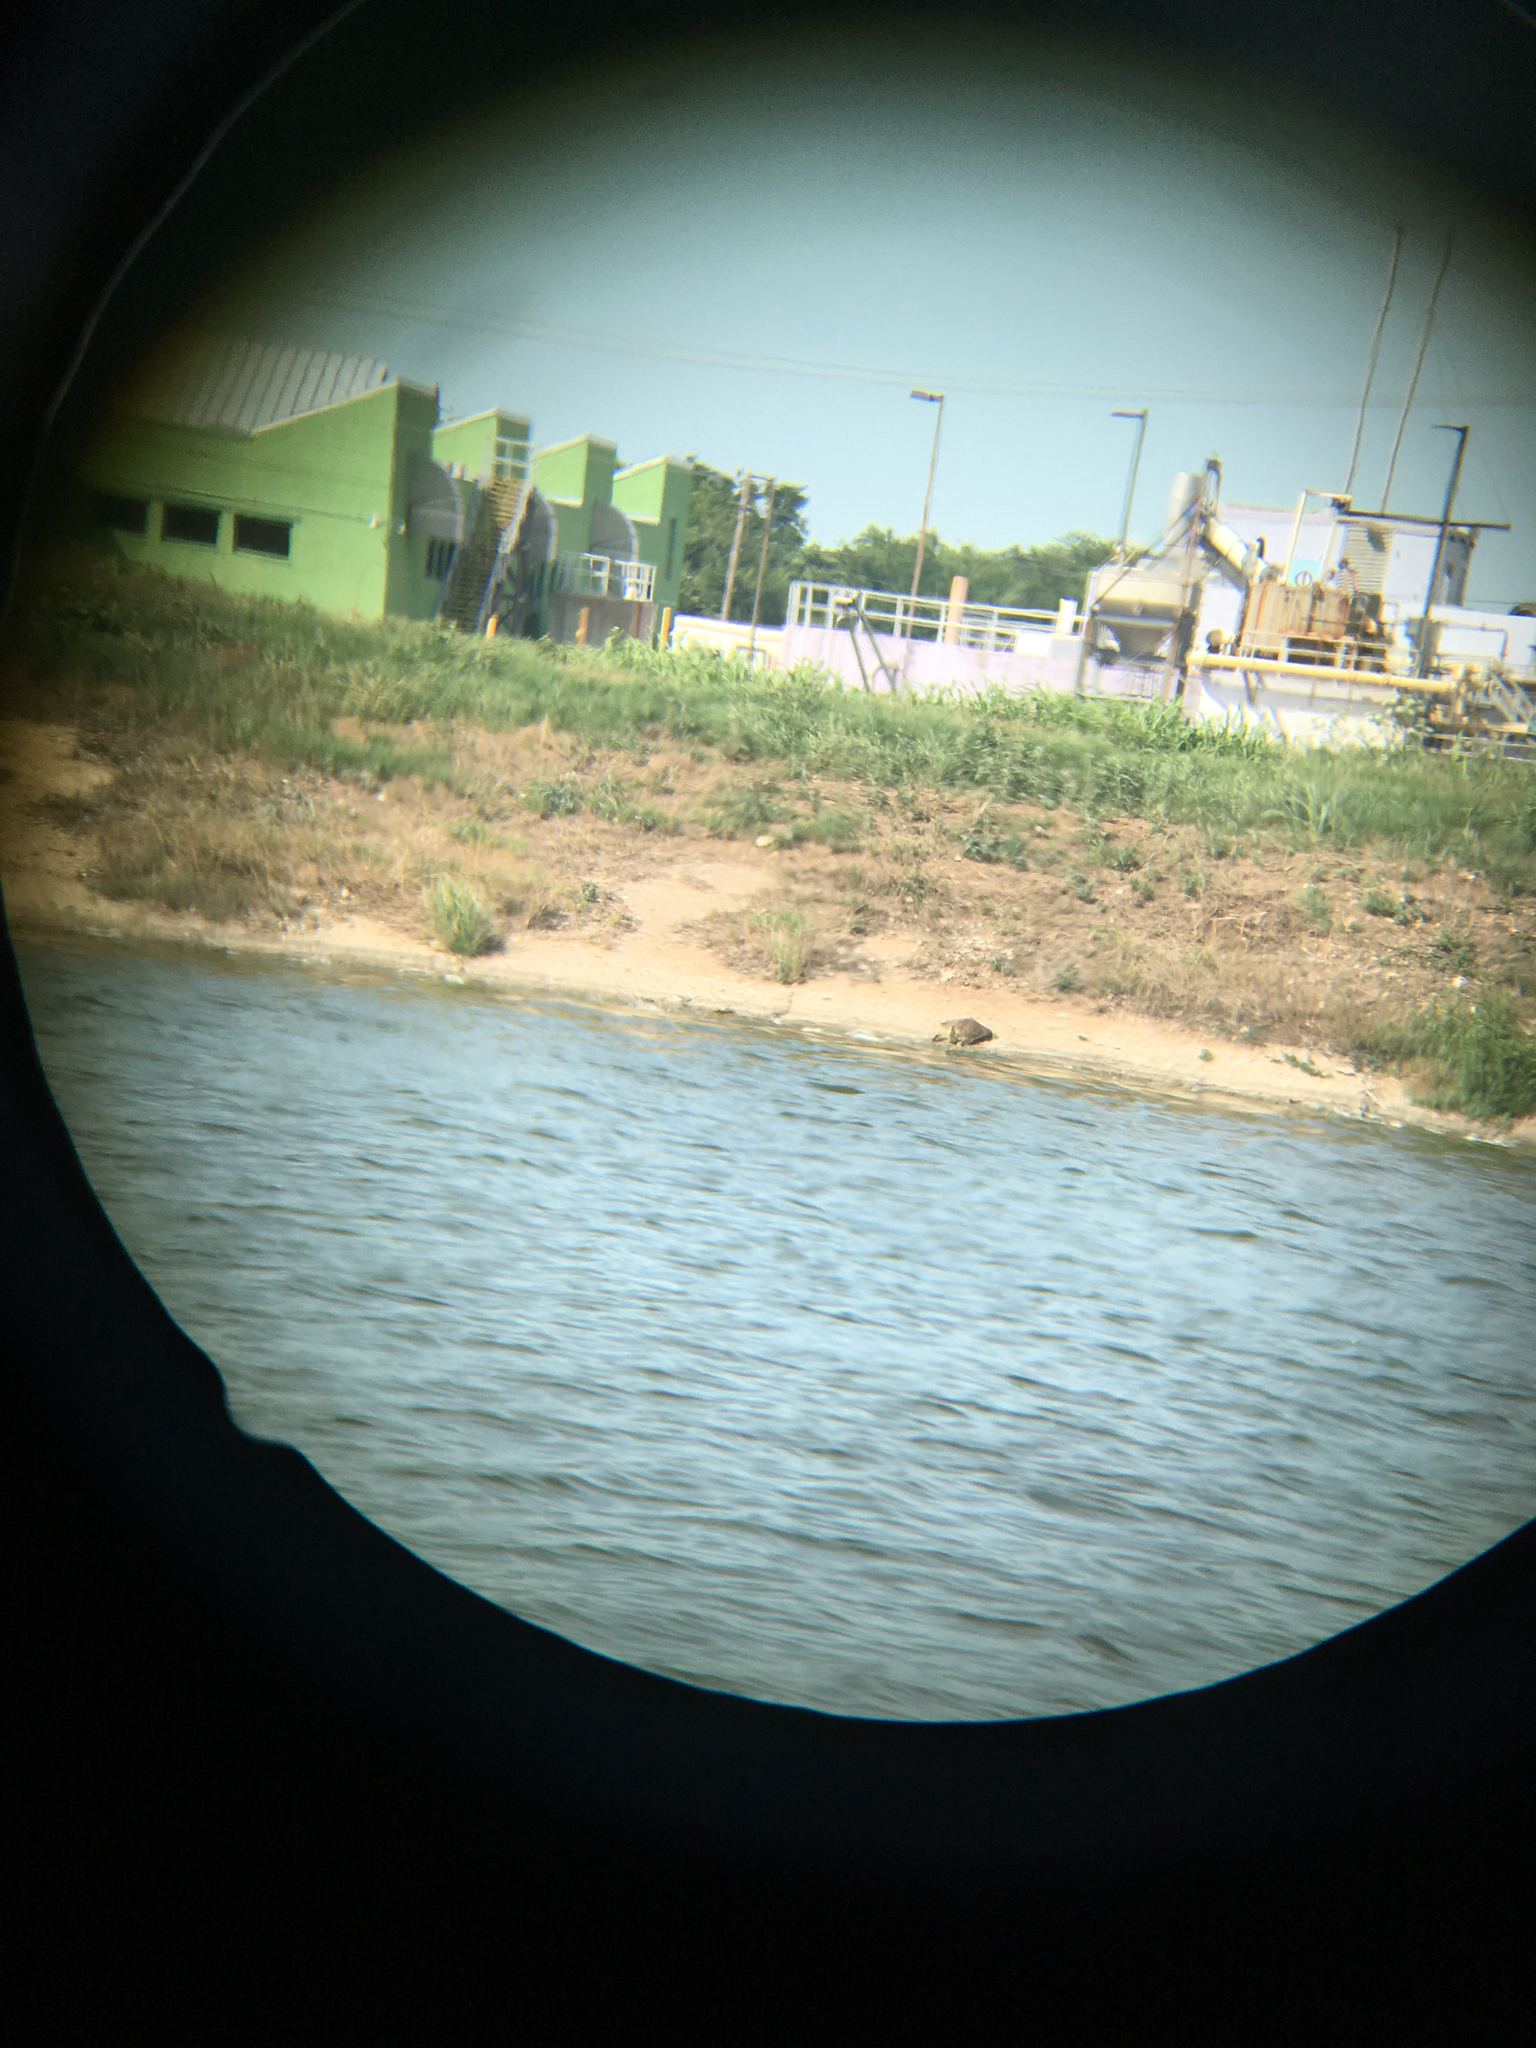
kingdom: Animalia
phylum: Chordata
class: Testudines
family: Trionychidae
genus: Apalone
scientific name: Apalone
